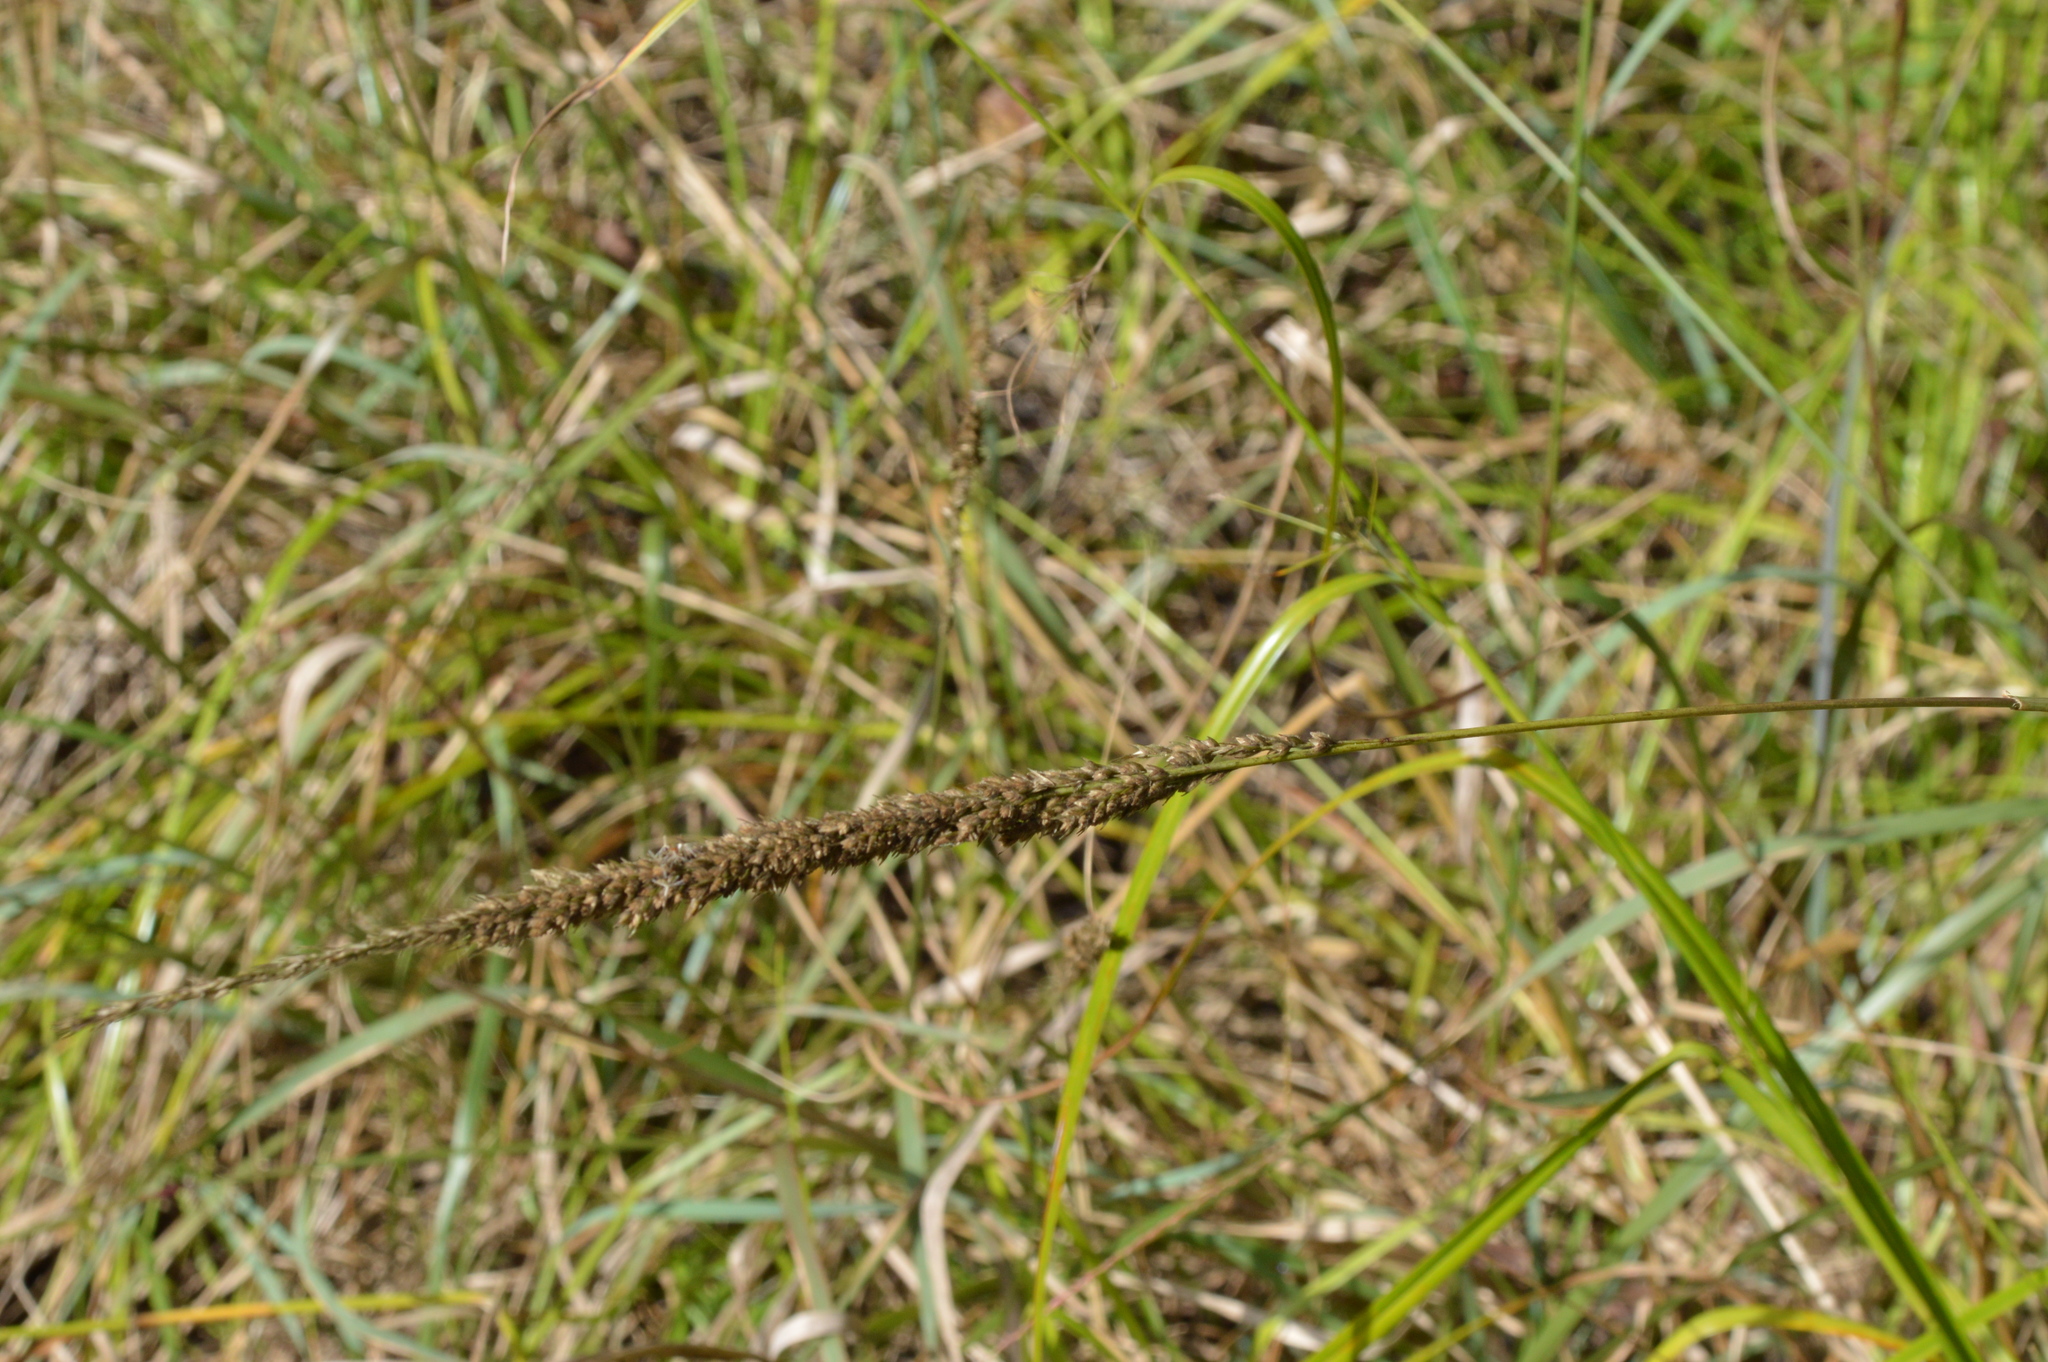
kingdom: Plantae
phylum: Tracheophyta
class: Liliopsida
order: Poales
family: Poaceae
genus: Tridens
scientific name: Tridens strictus
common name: Long-spike tridens
